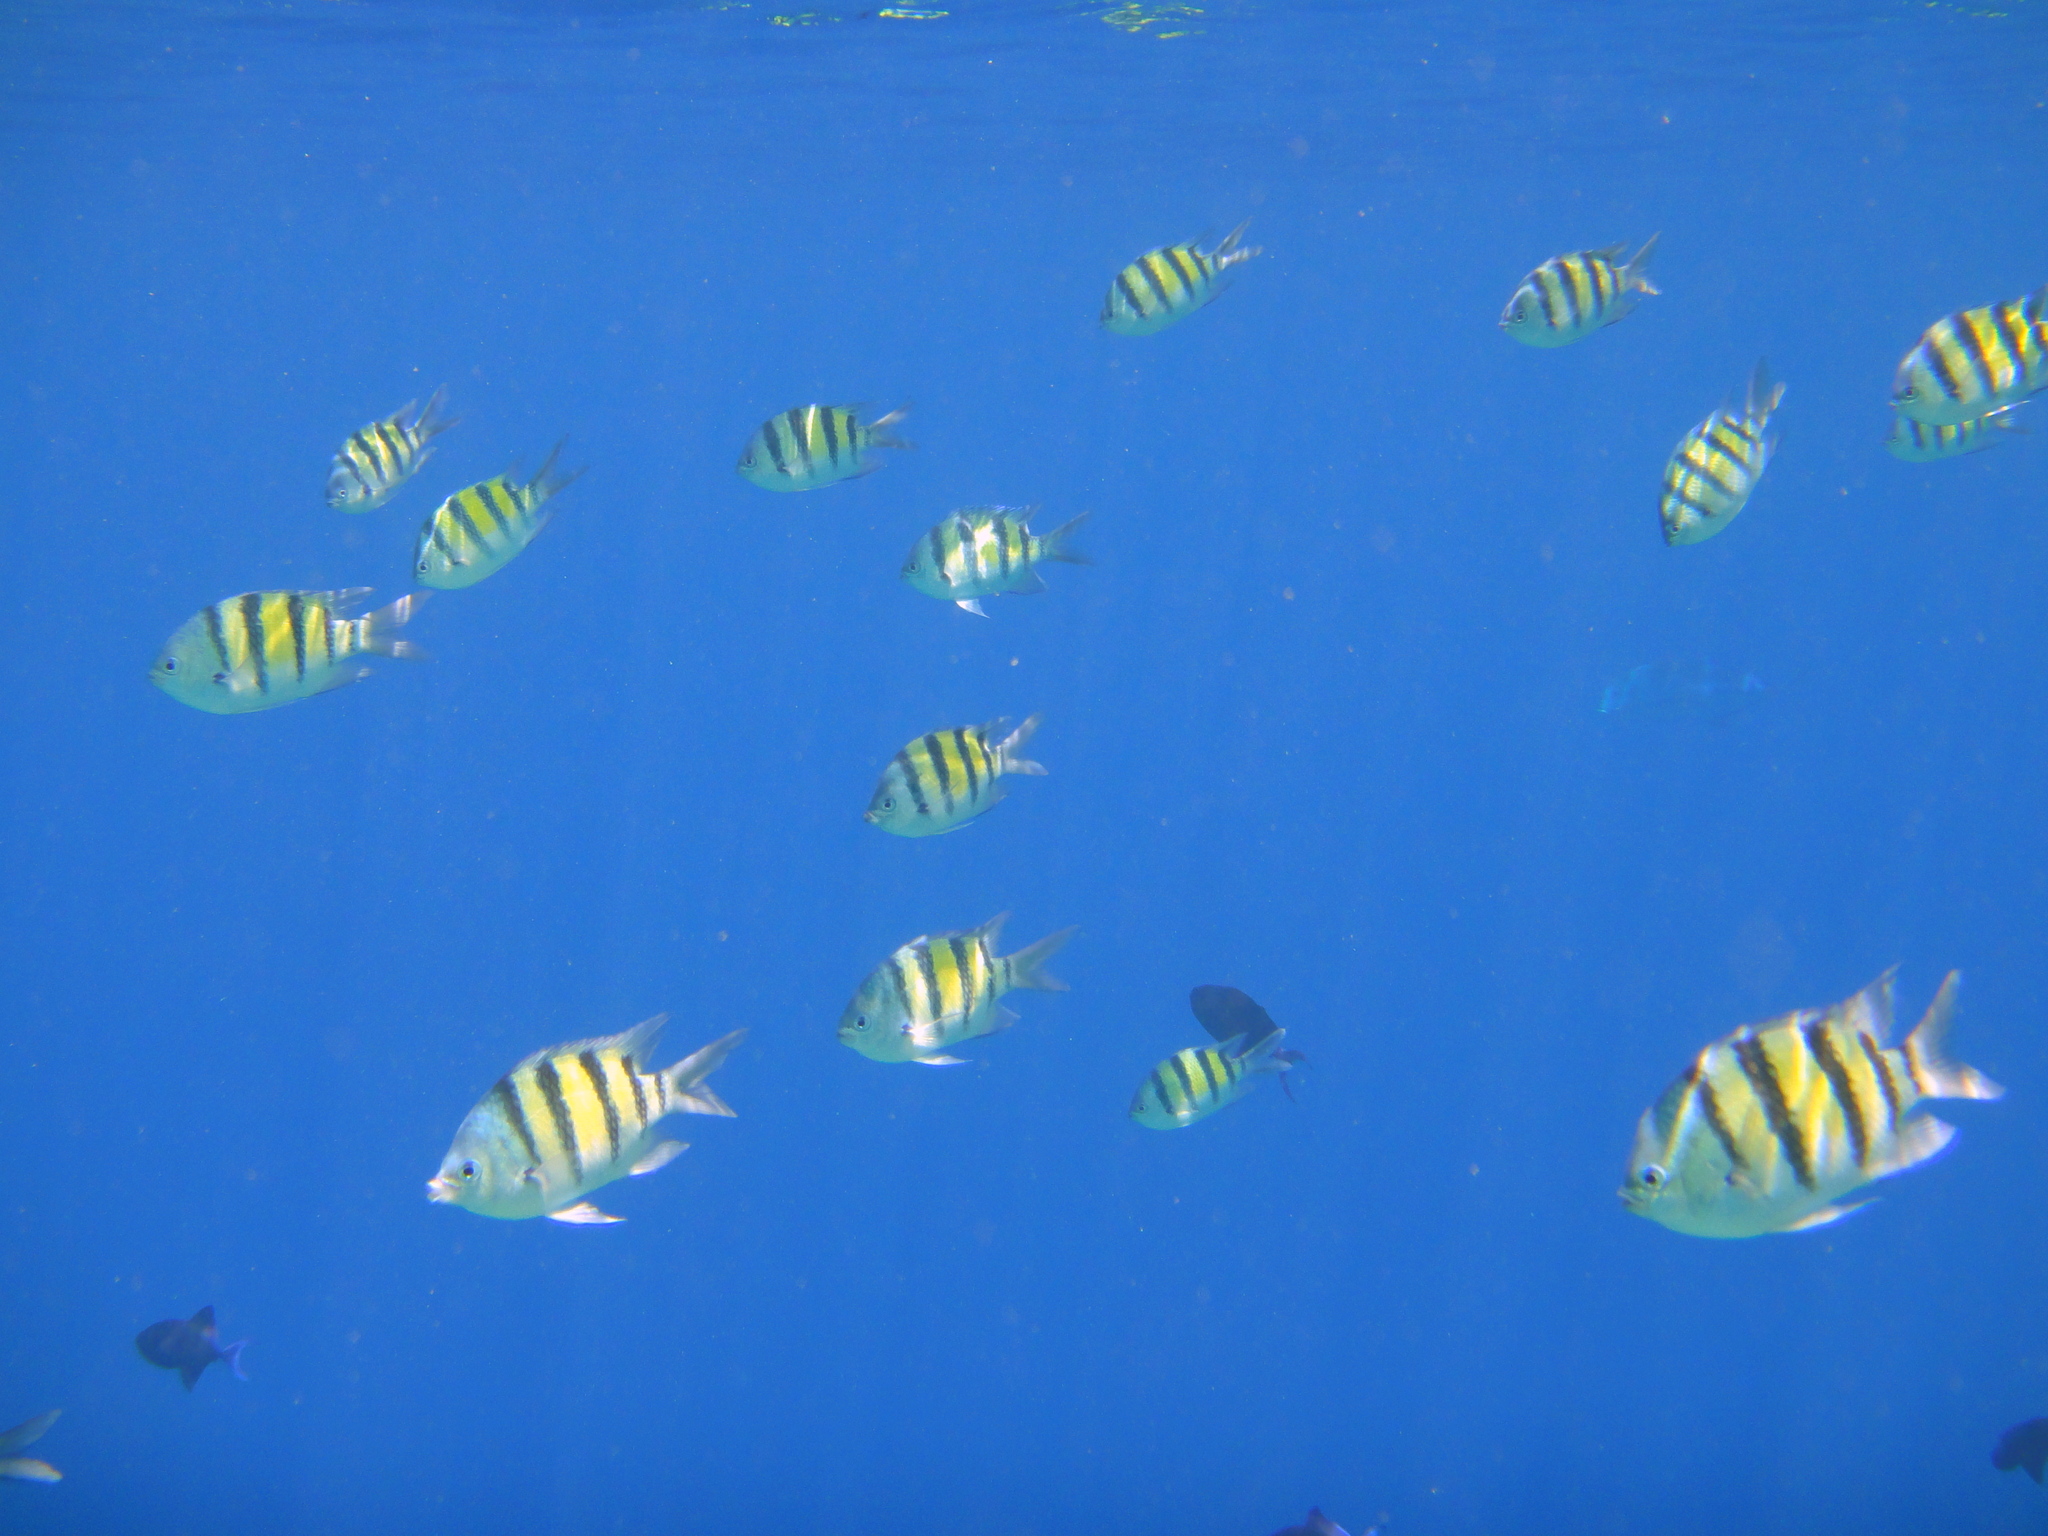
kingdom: Animalia
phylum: Chordata
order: Perciformes
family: Pomacentridae
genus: Abudefduf
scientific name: Abudefduf vaigiensis
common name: Indo-pacific sergeant
